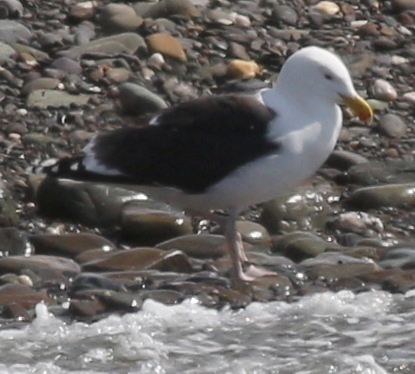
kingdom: Animalia
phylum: Chordata
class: Aves
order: Charadriiformes
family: Laridae
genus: Larus
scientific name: Larus marinus
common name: Great black-backed gull
